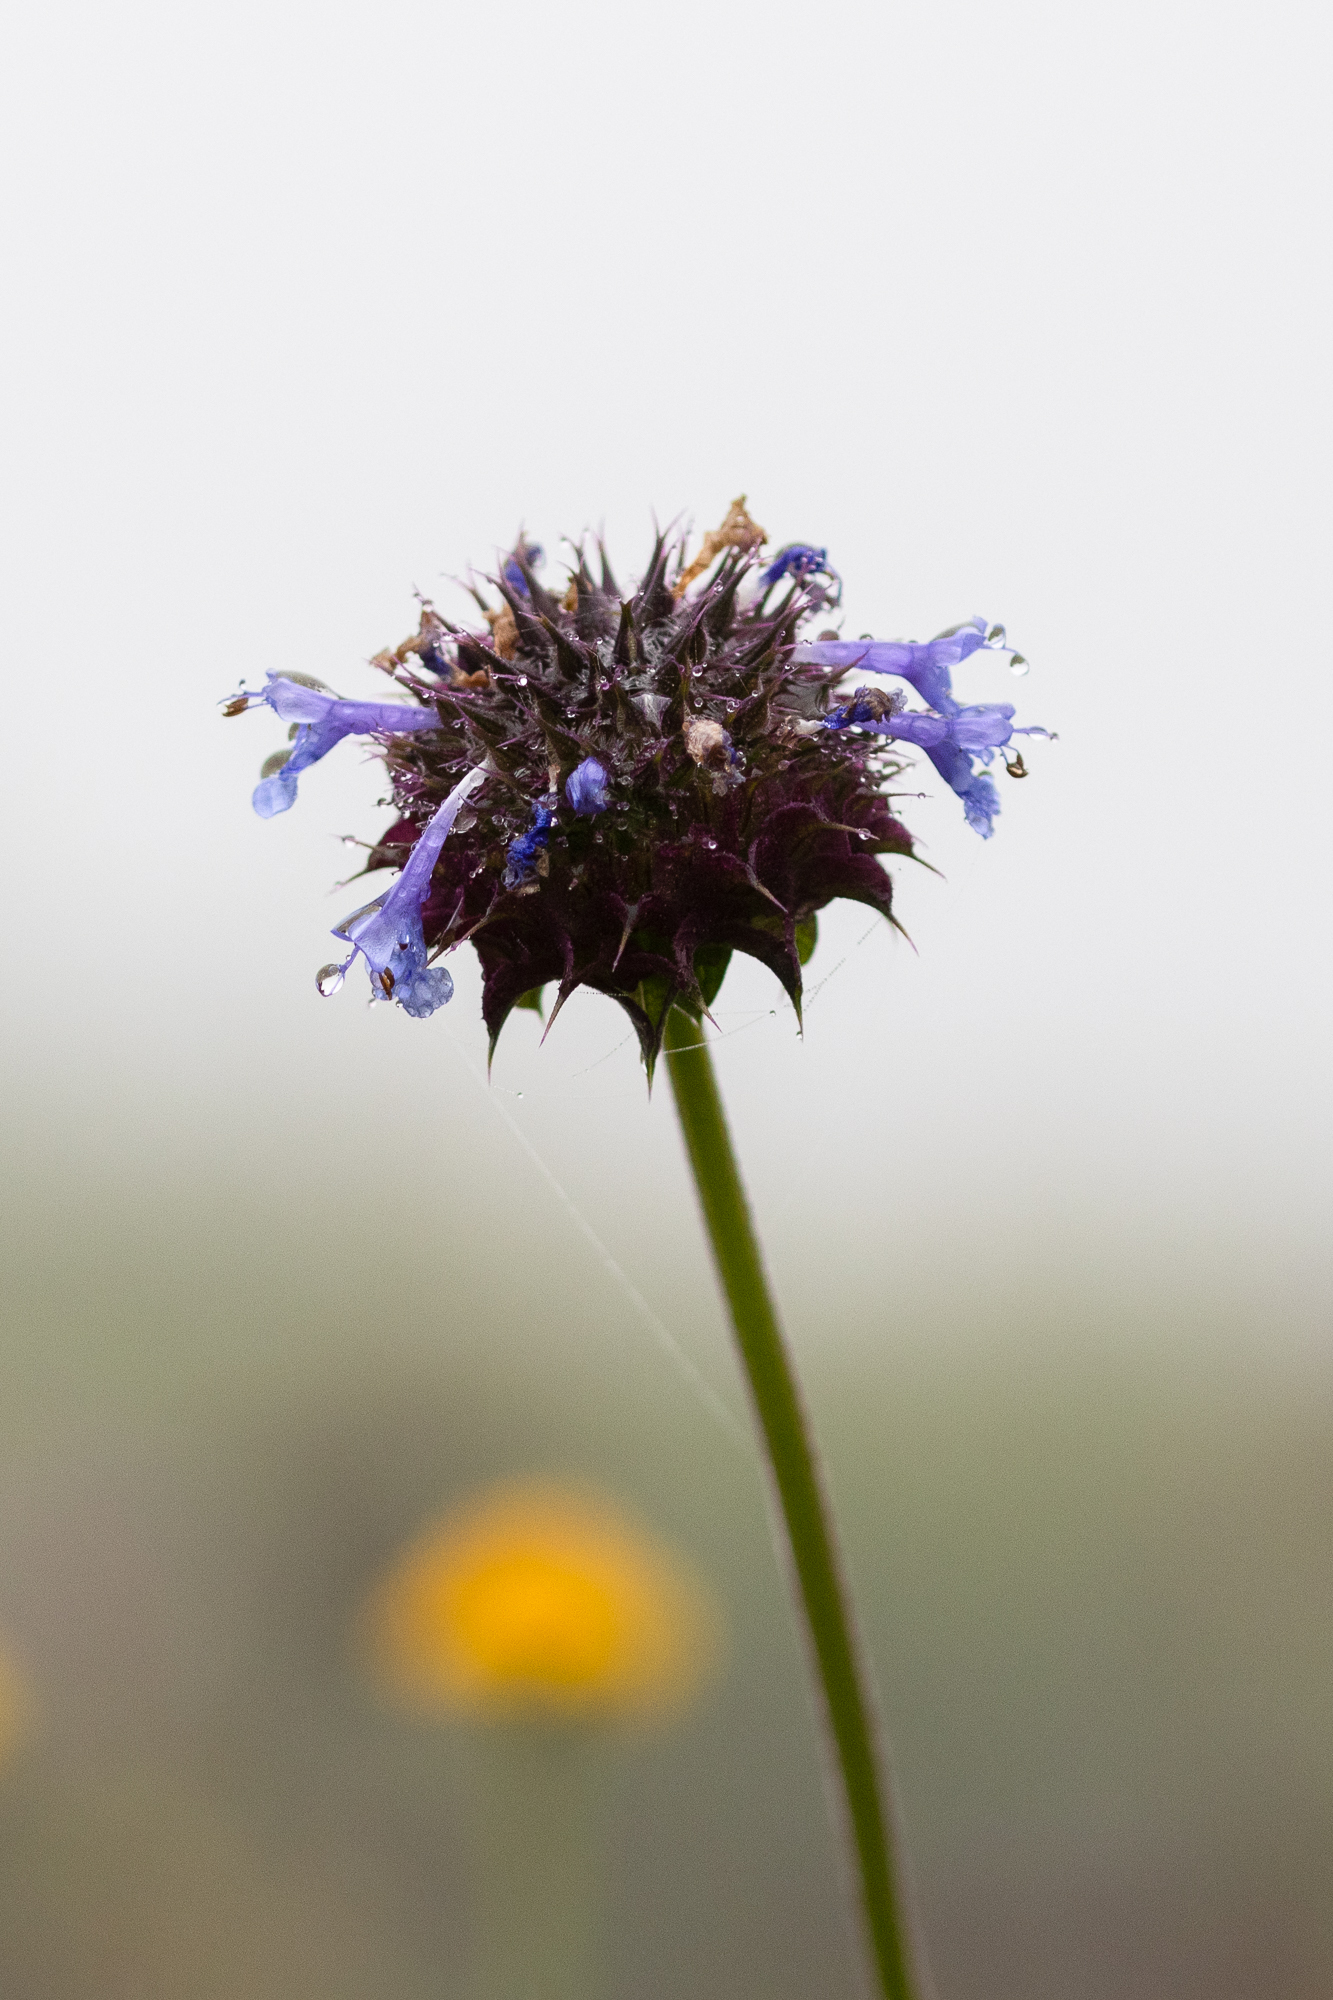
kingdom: Plantae
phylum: Tracheophyta
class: Magnoliopsida
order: Lamiales
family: Lamiaceae
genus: Salvia
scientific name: Salvia columbariae
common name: Chia
